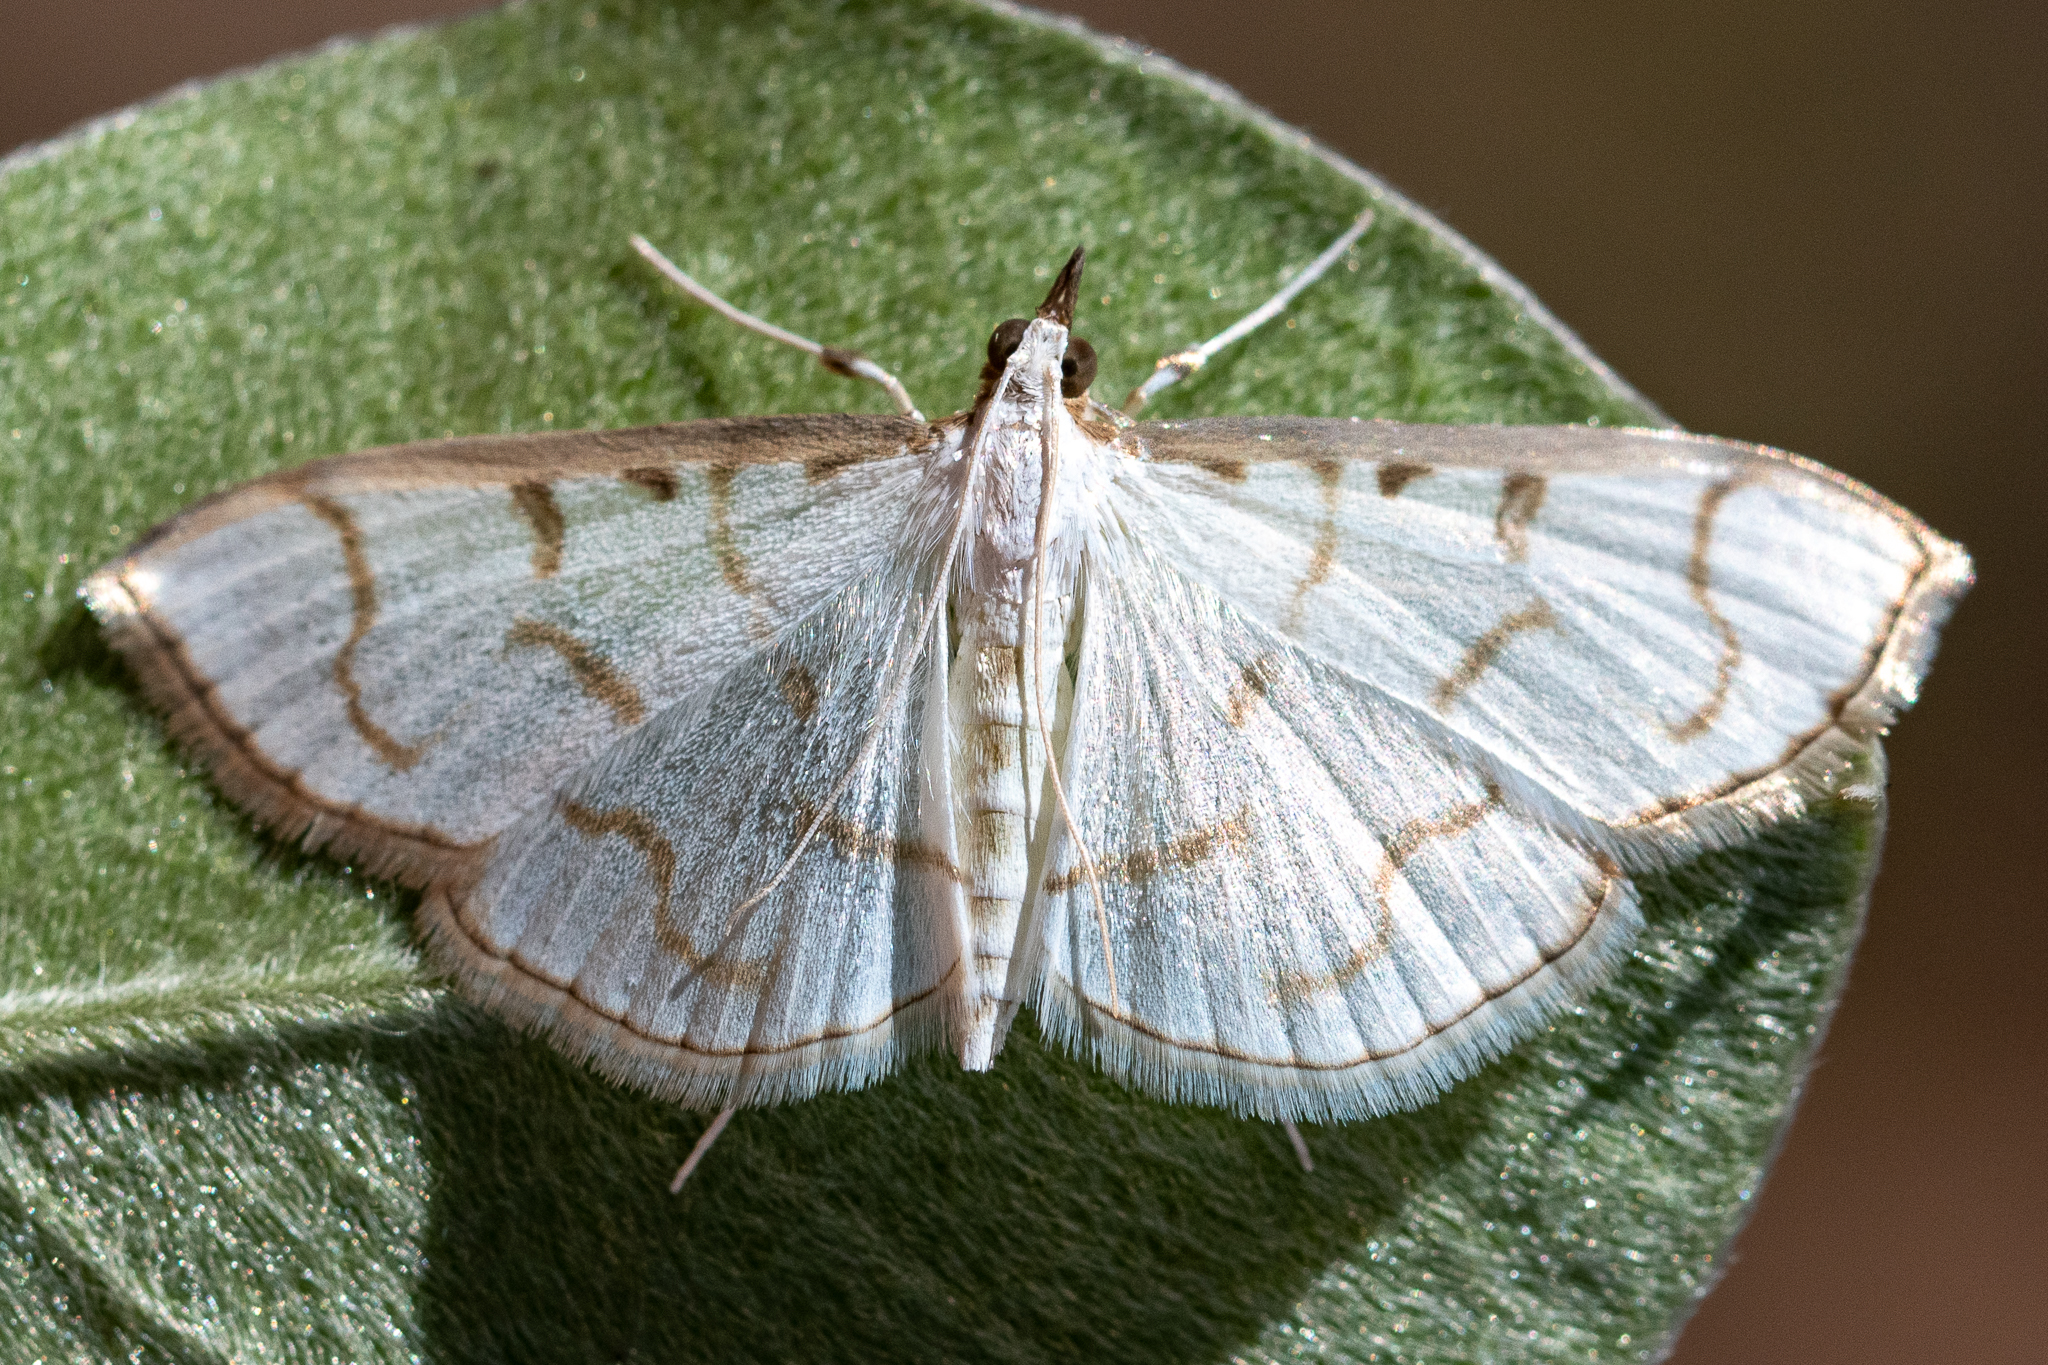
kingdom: Animalia
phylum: Arthropoda
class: Insecta
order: Lepidoptera
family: Crambidae
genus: Antigastra
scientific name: Antigastra morysalis
